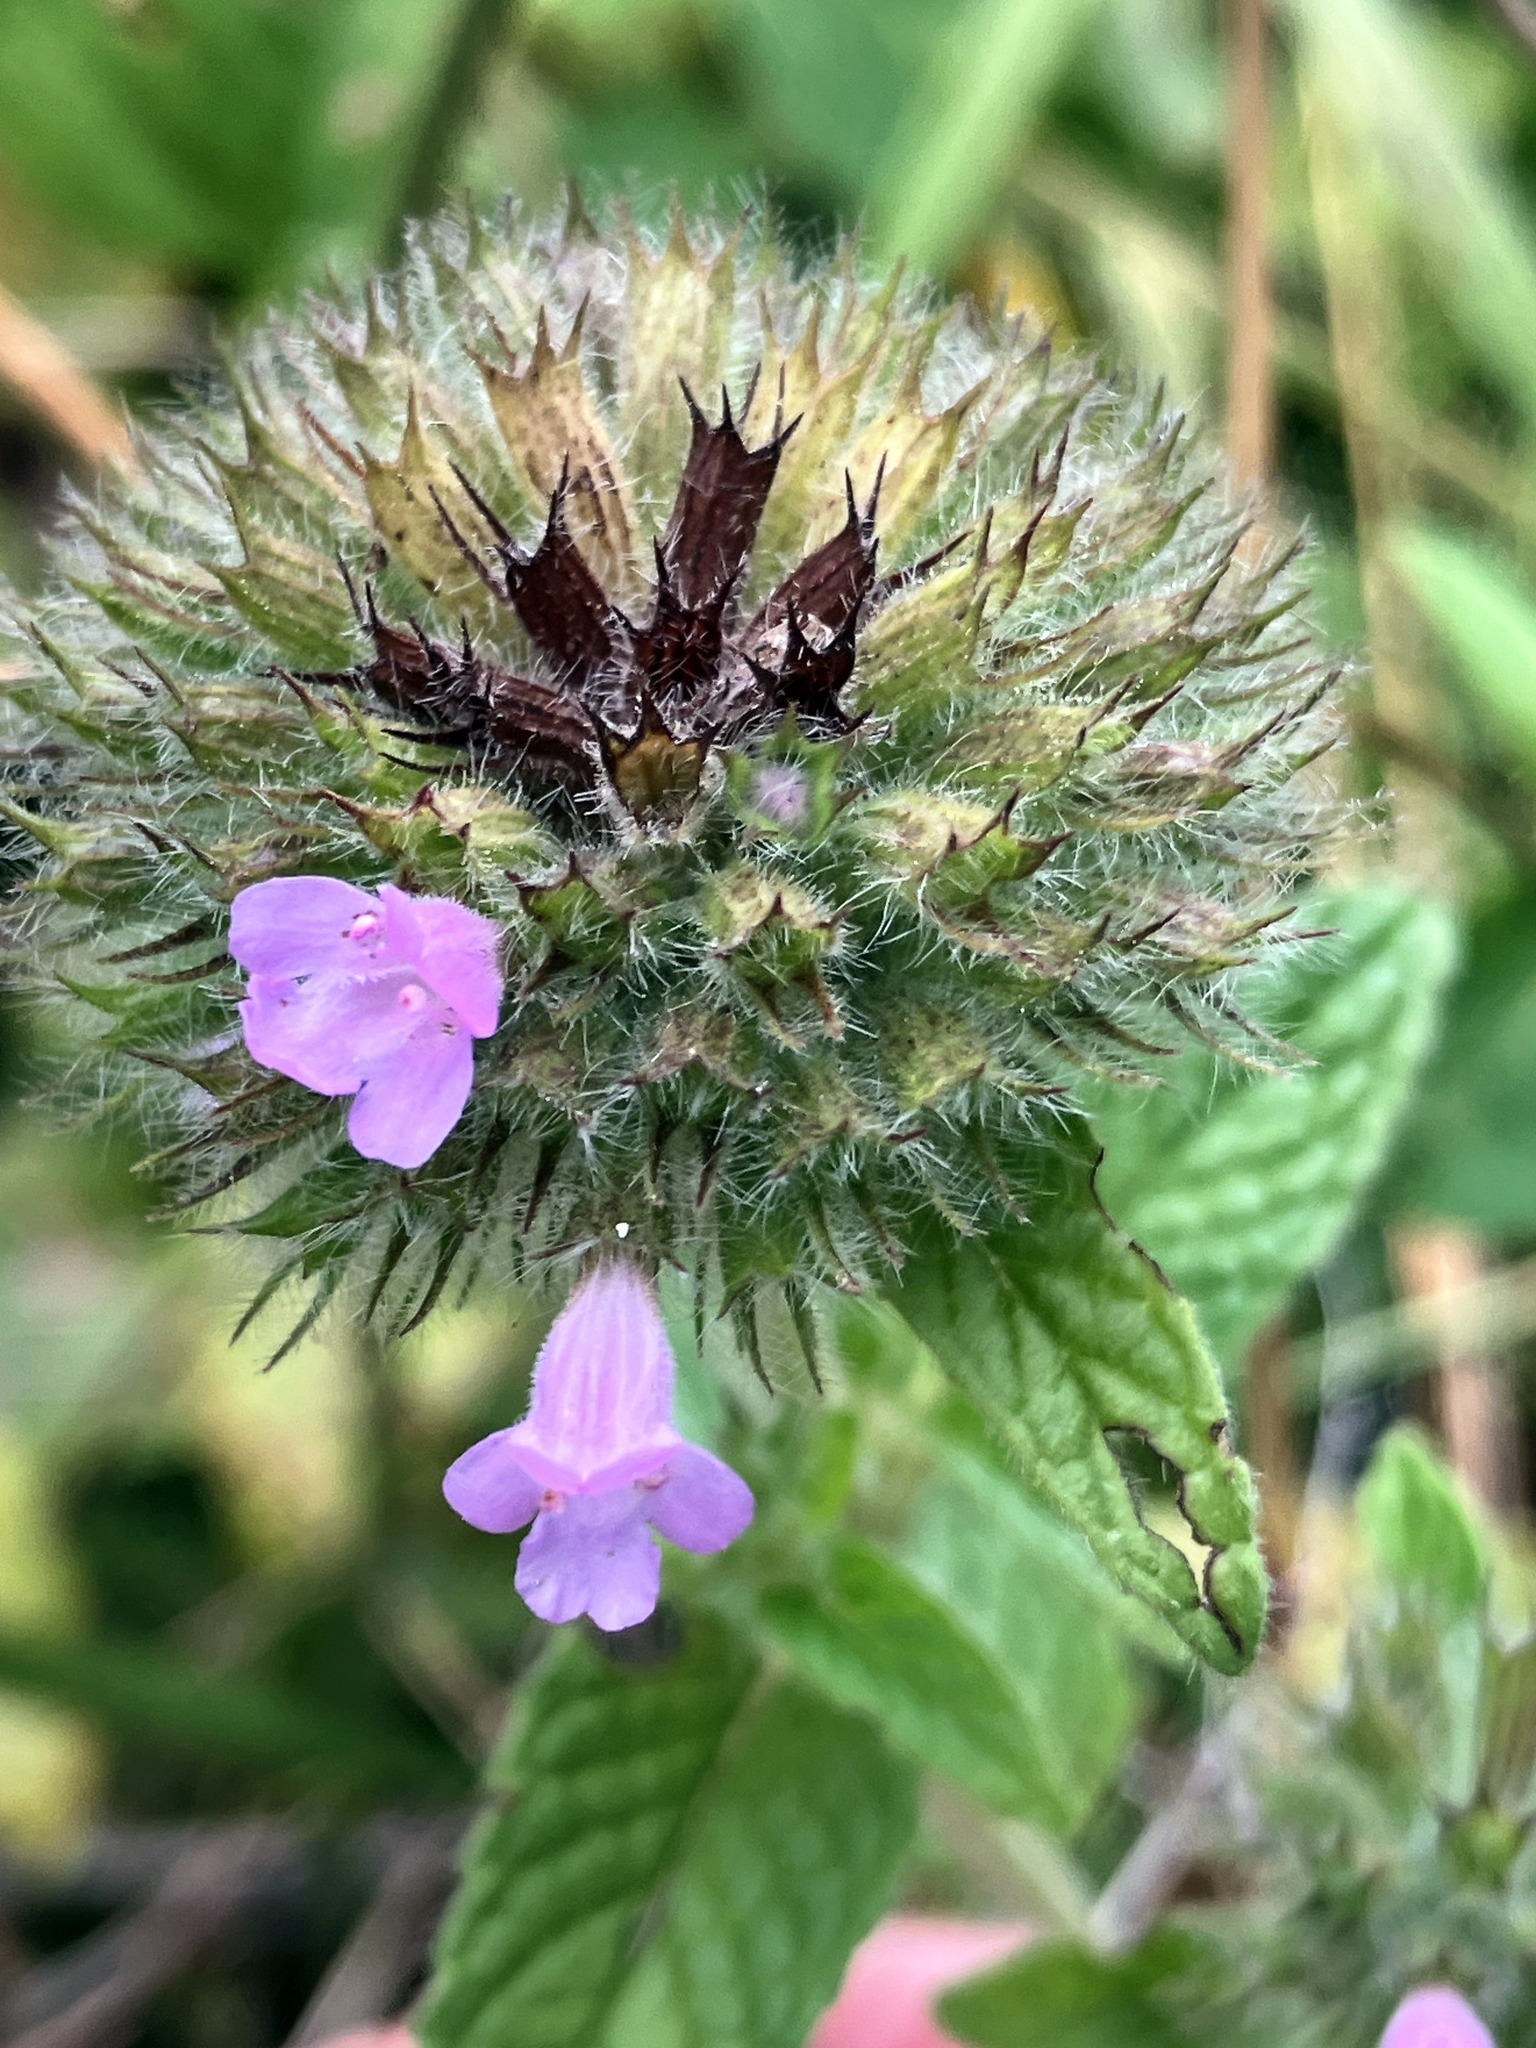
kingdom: Plantae
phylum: Tracheophyta
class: Magnoliopsida
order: Lamiales
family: Lamiaceae
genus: Clinopodium
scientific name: Clinopodium vulgare
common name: Wild basil
